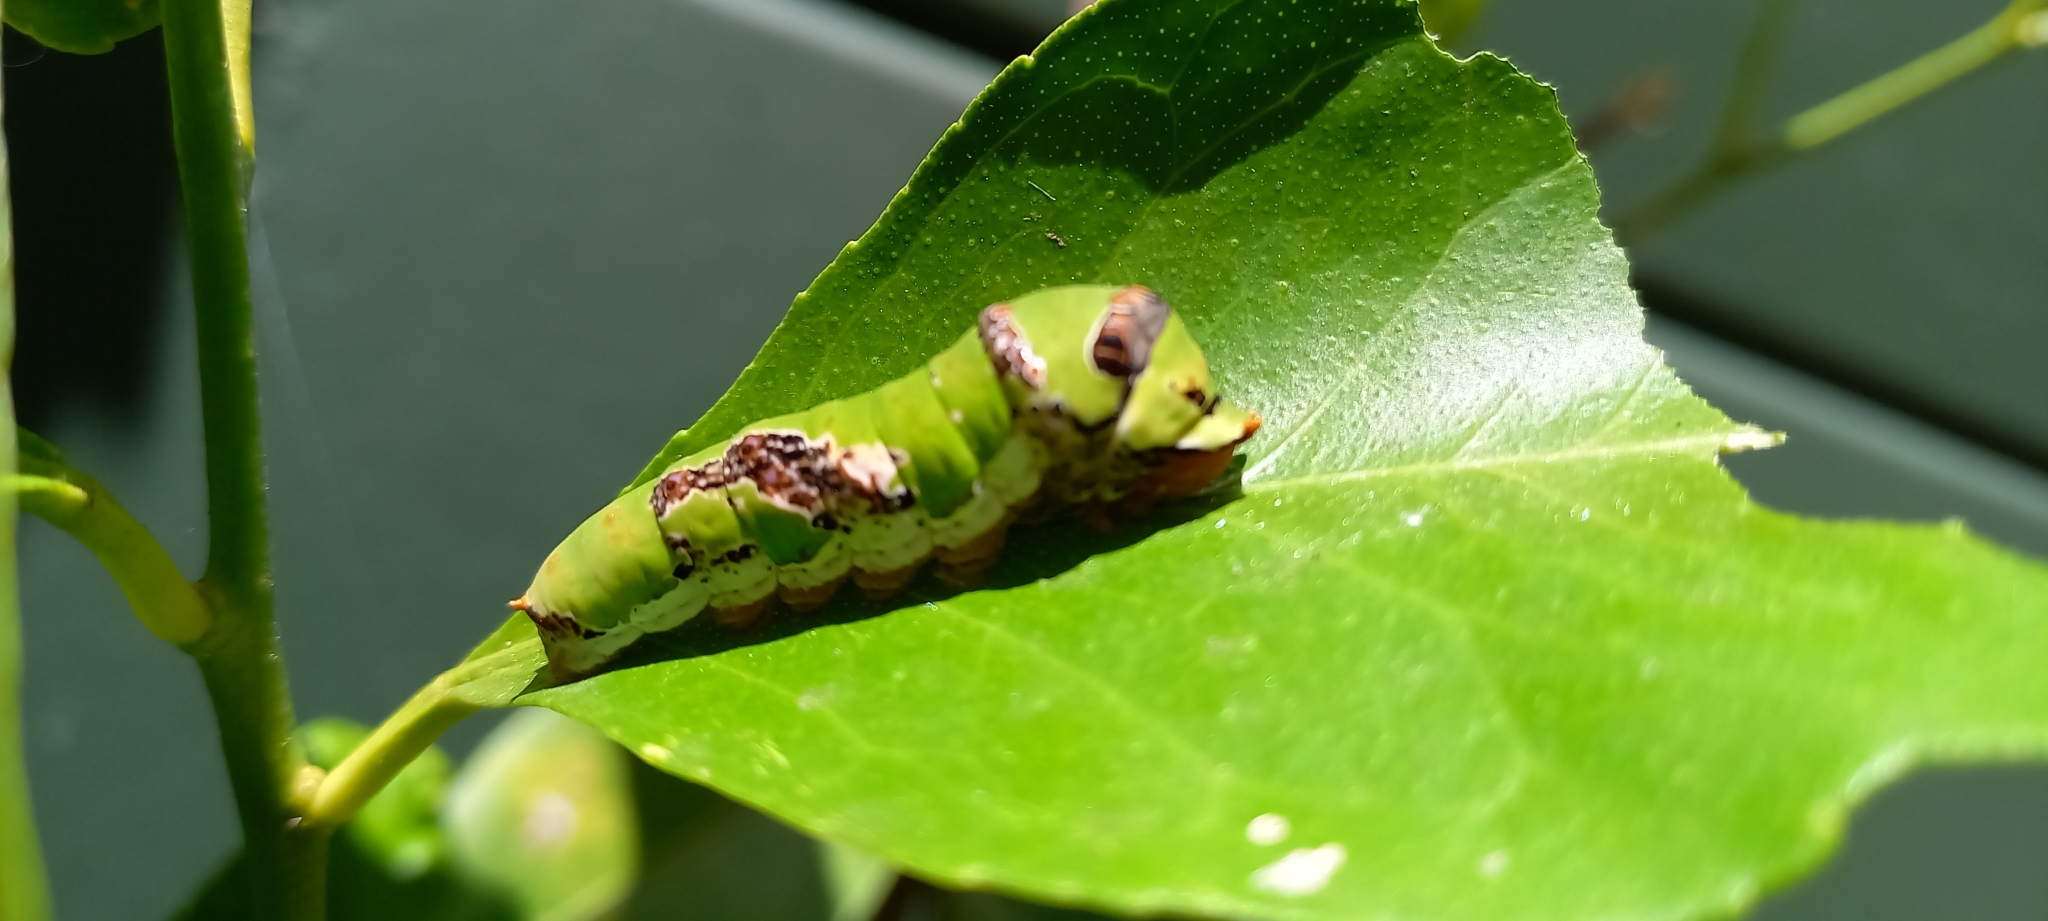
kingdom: Animalia
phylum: Arthropoda
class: Insecta
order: Lepidoptera
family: Papilionidae
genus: Papilio
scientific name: Papilio demodocus
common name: Christmas butterfly
